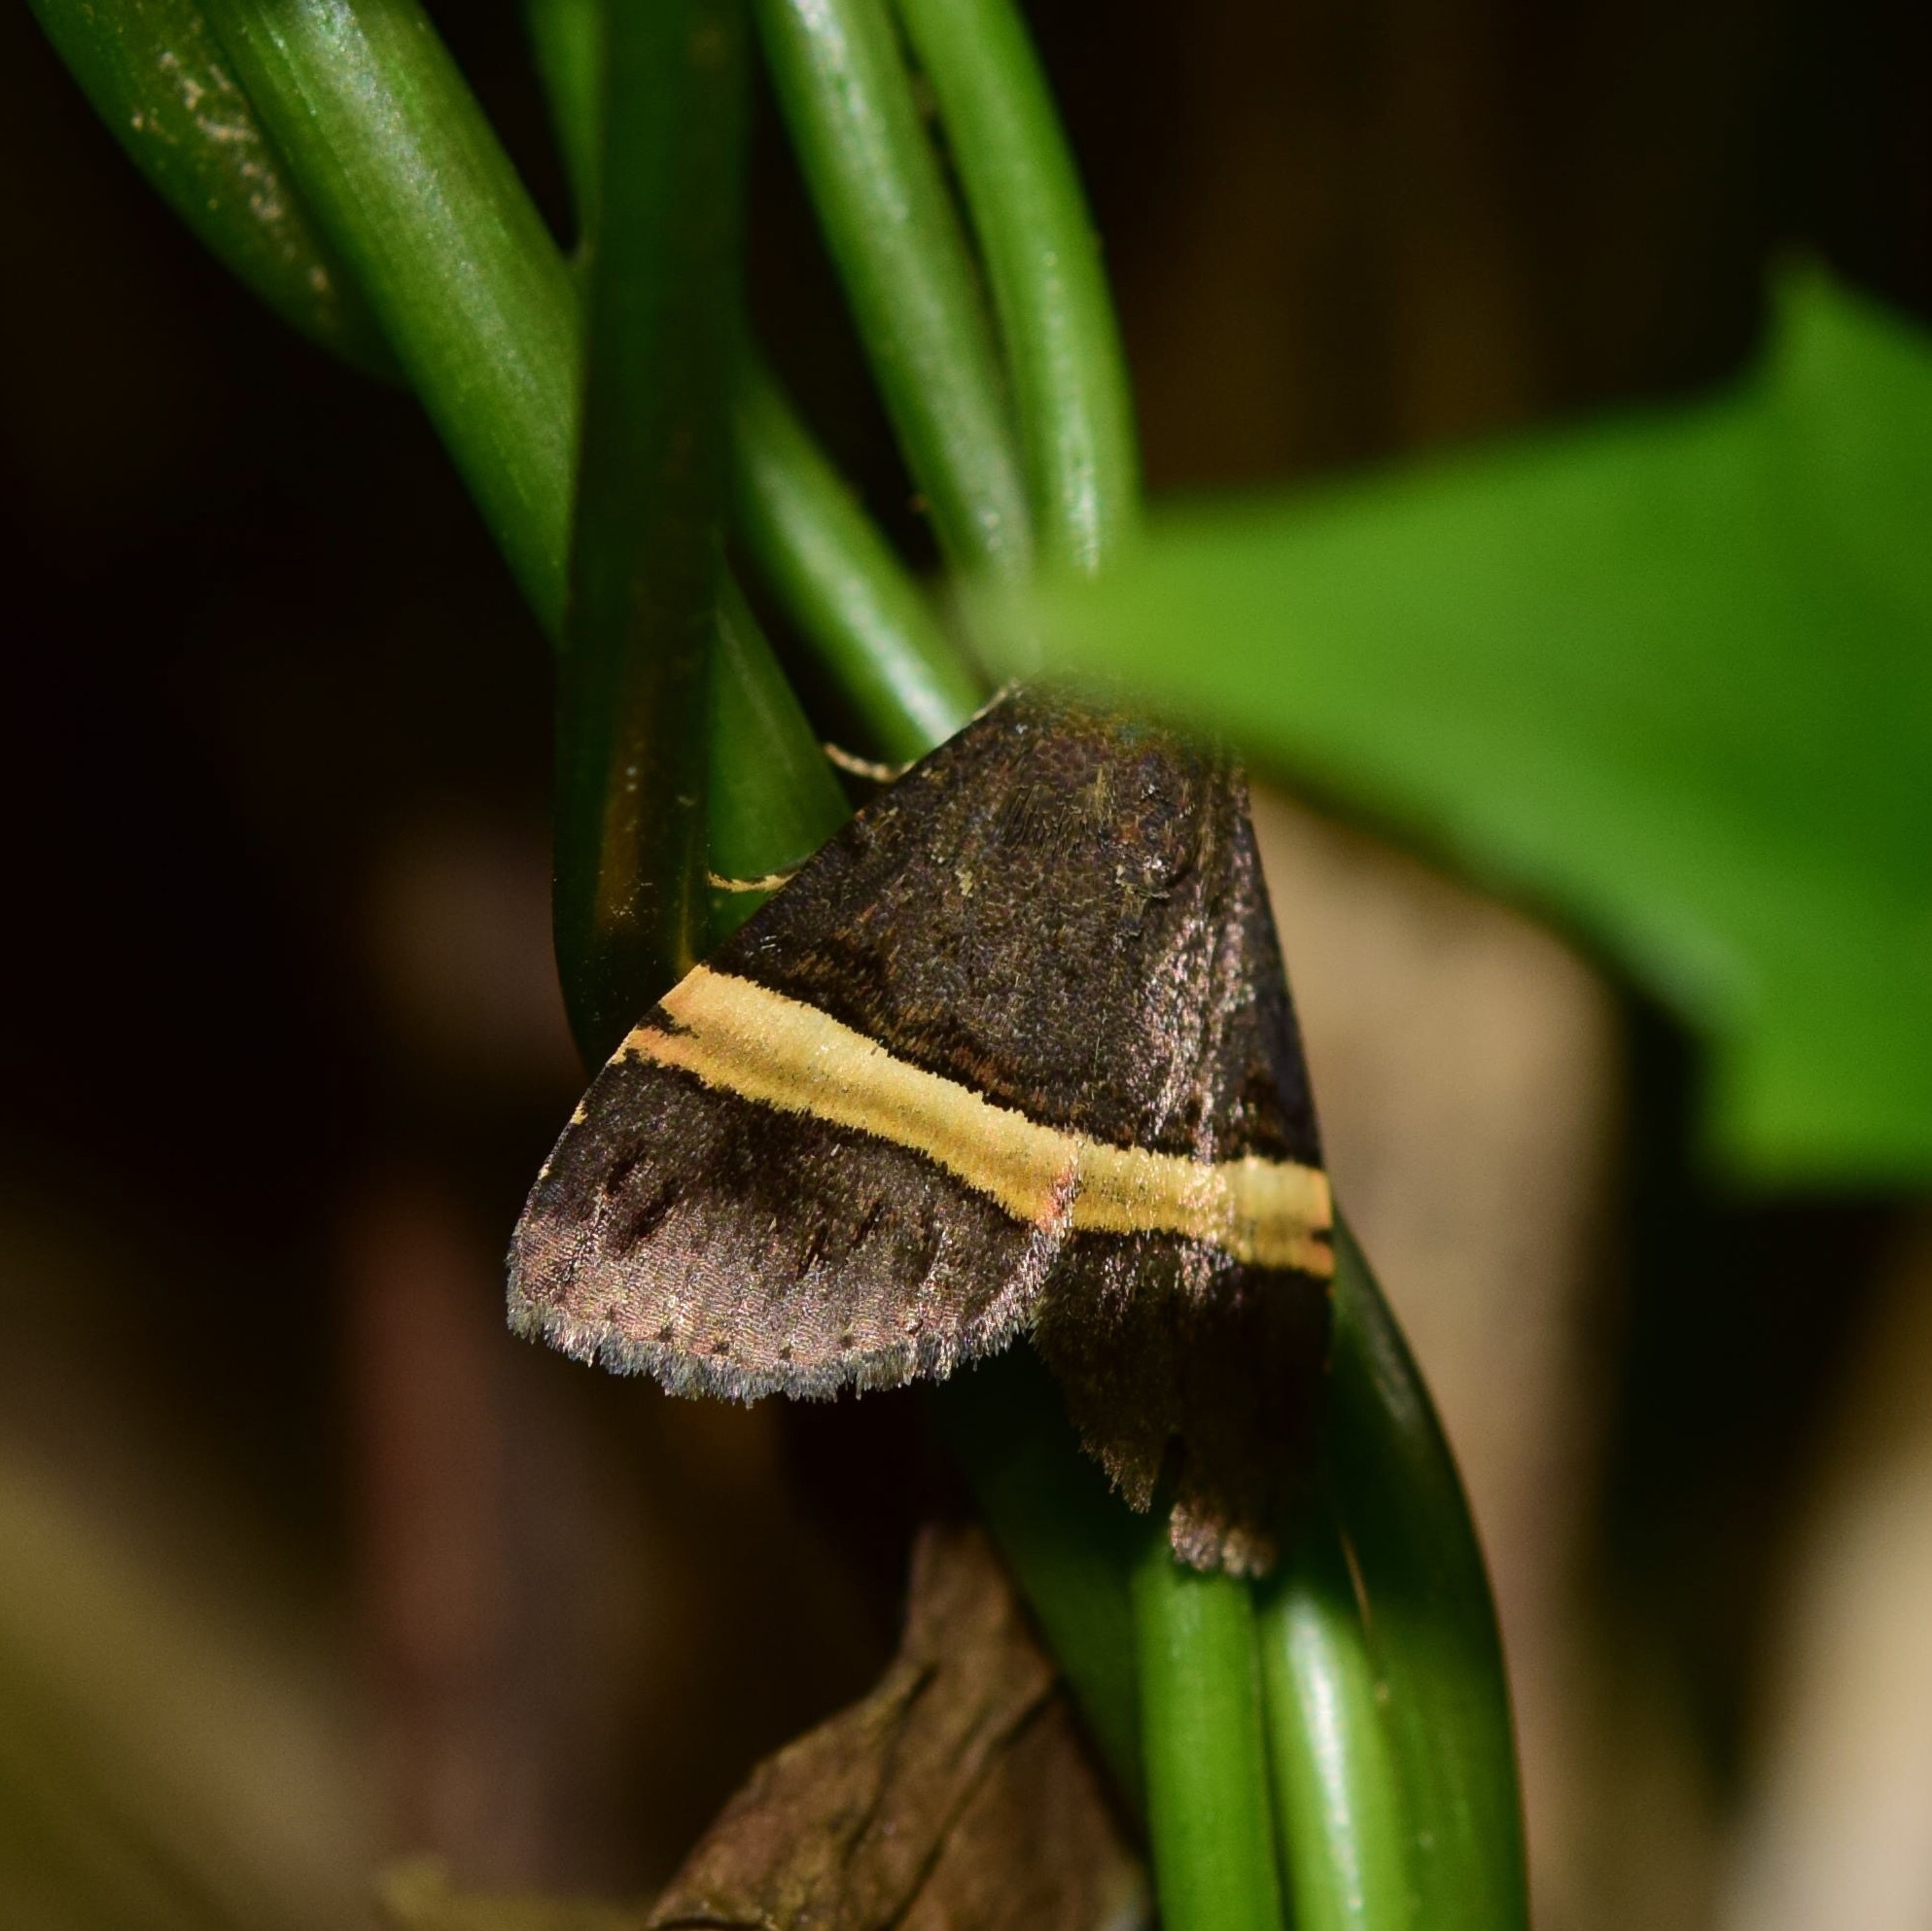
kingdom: Animalia
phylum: Arthropoda
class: Insecta
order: Lepidoptera
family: Noctuidae
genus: Ozarba
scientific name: Ozarba abscissa
